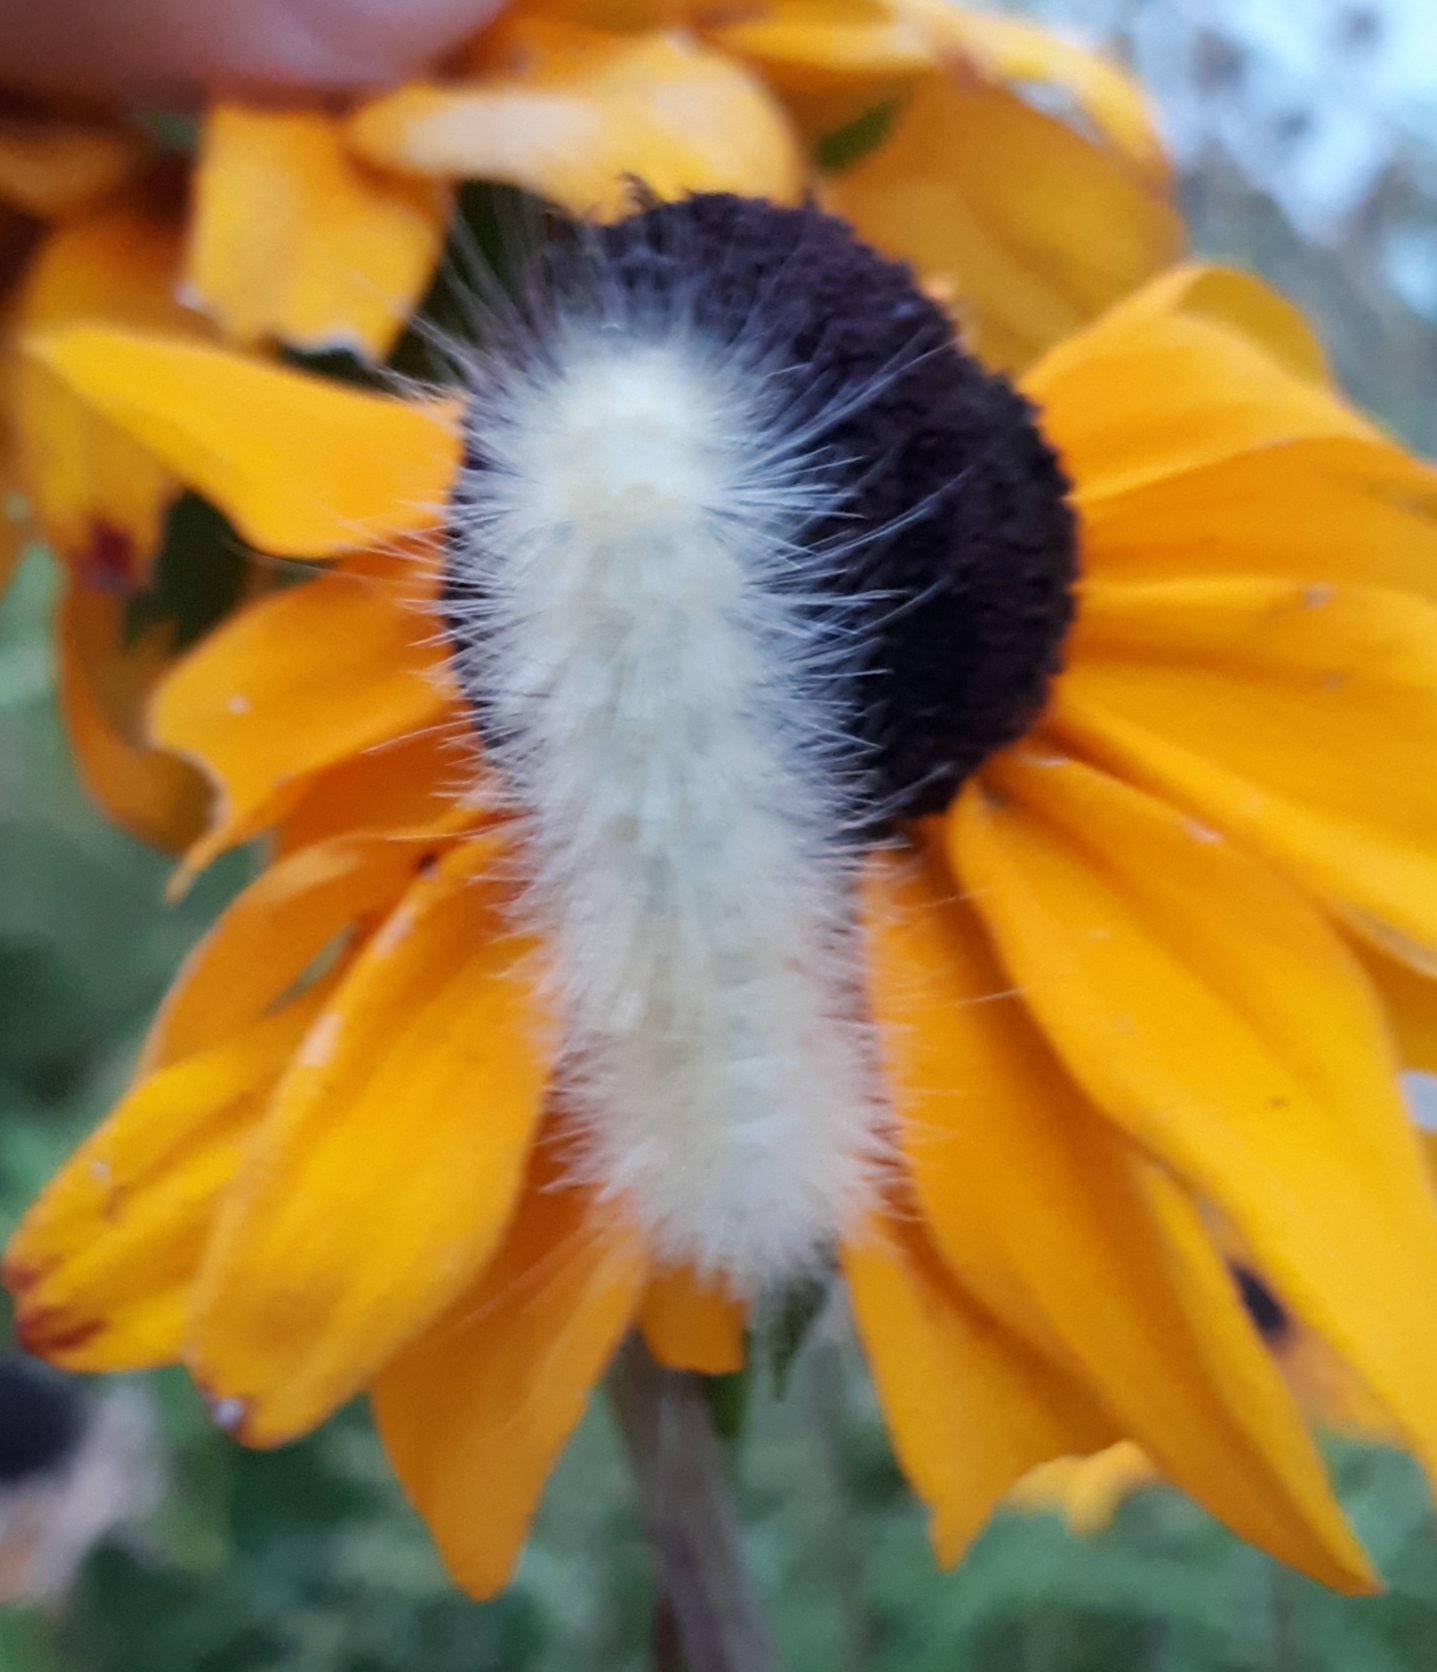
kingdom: Animalia
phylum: Arthropoda
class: Insecta
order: Lepidoptera
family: Erebidae
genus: Spilosoma
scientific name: Spilosoma virginica
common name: Virginia tiger moth
